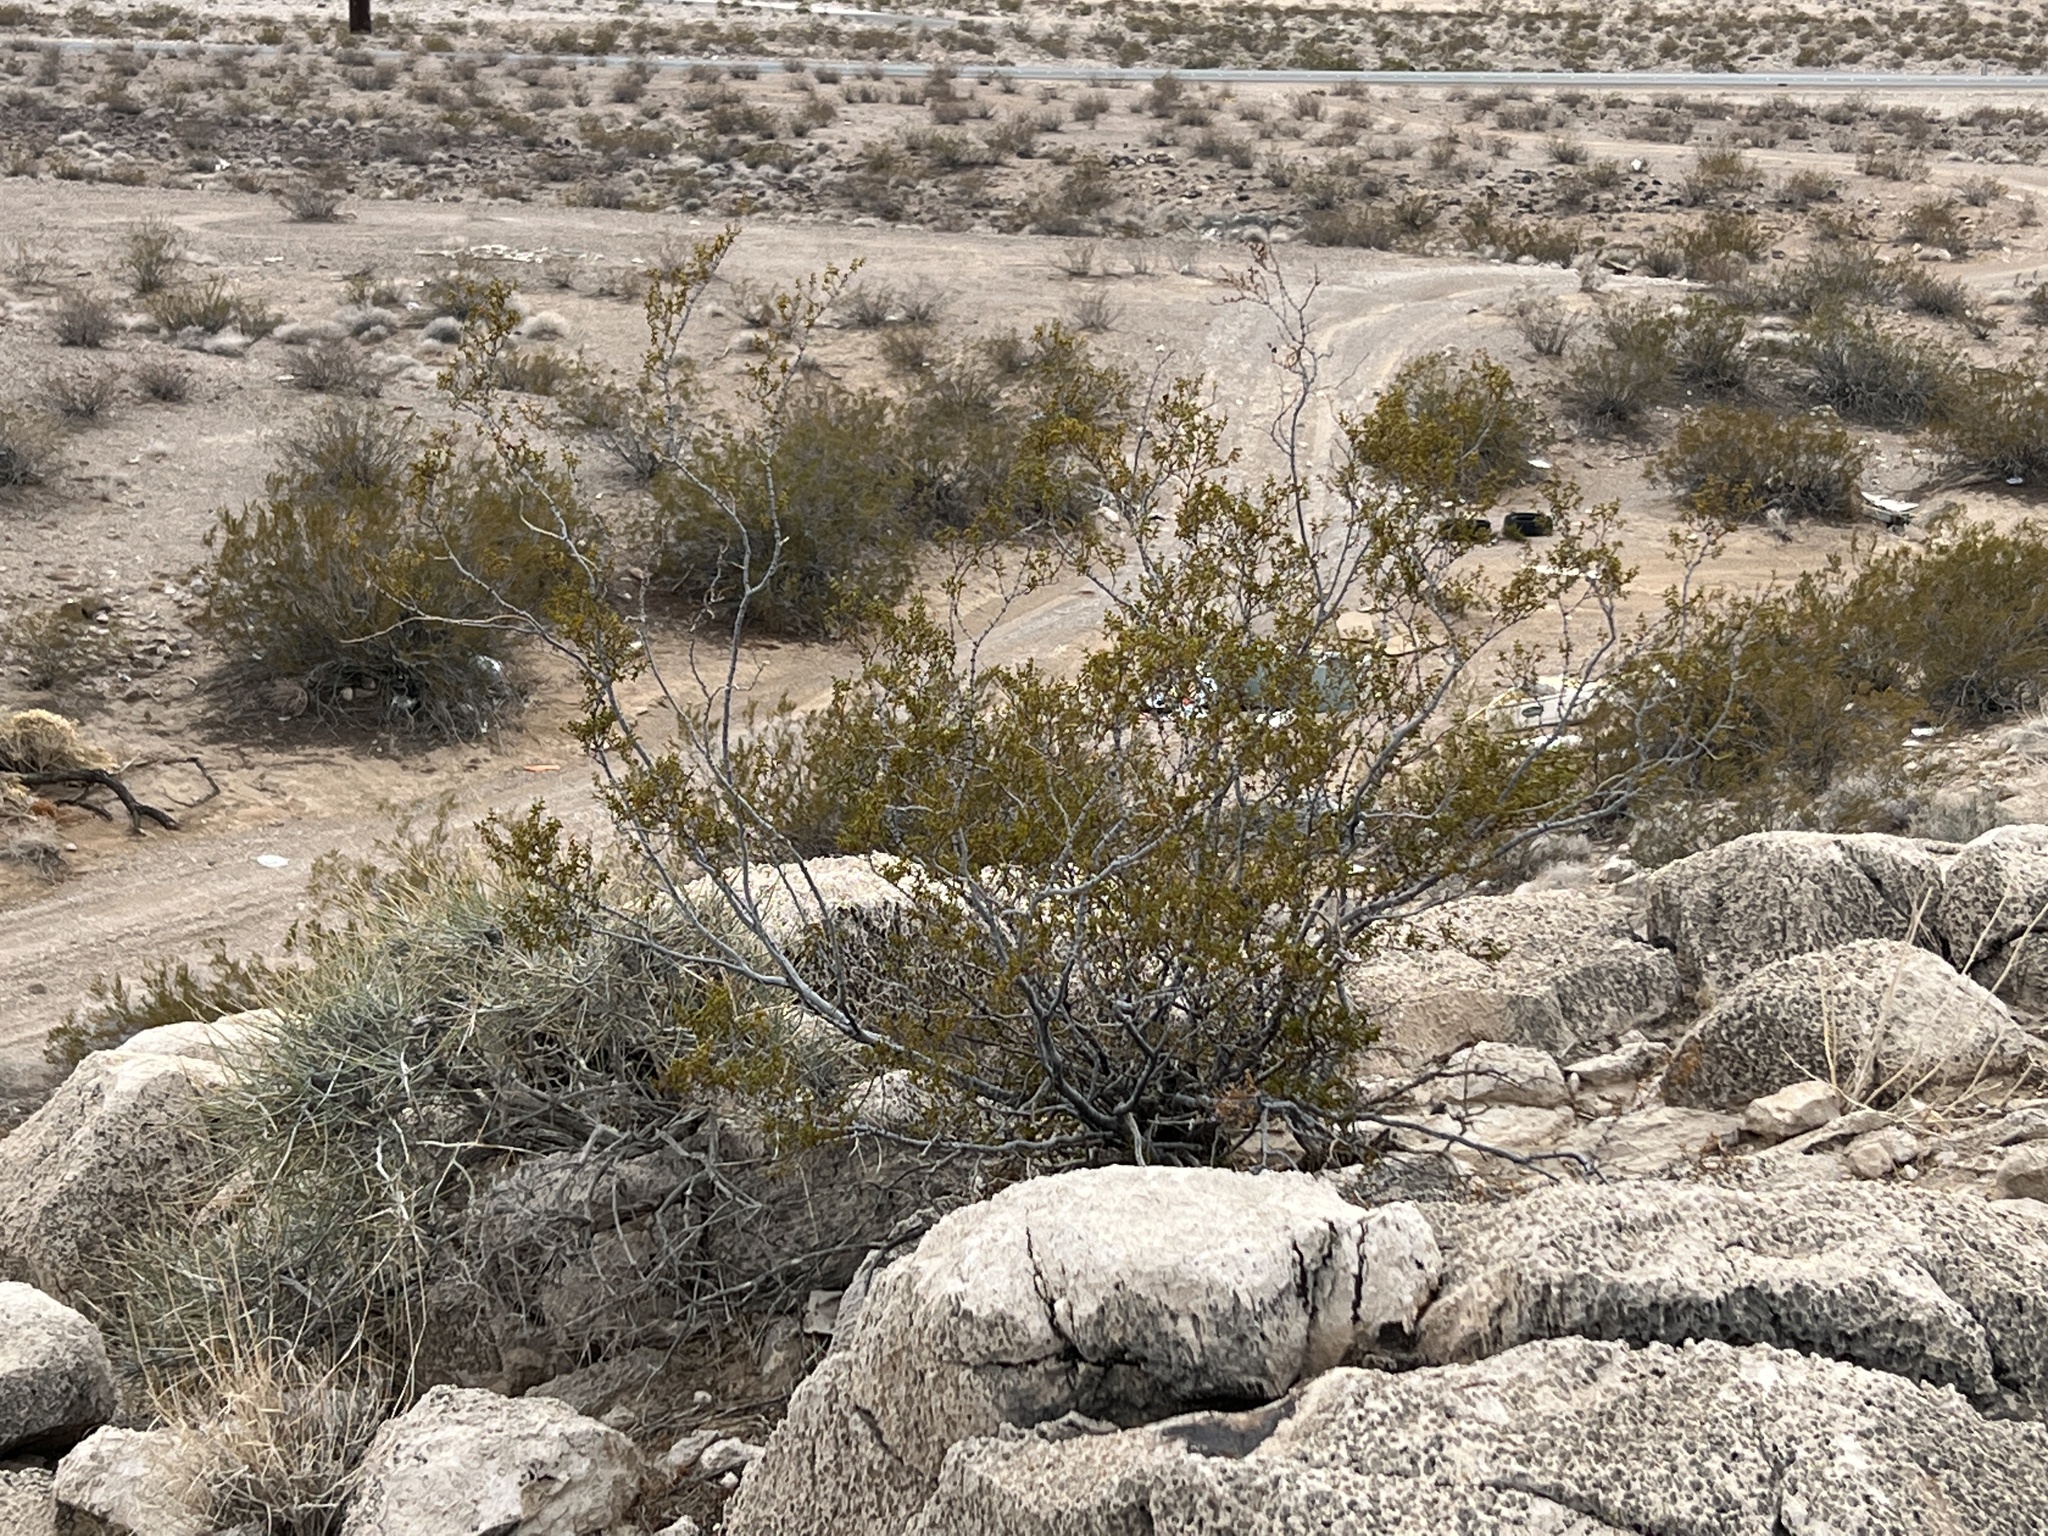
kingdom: Plantae
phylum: Tracheophyta
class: Magnoliopsida
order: Zygophyllales
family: Zygophyllaceae
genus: Larrea
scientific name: Larrea tridentata
